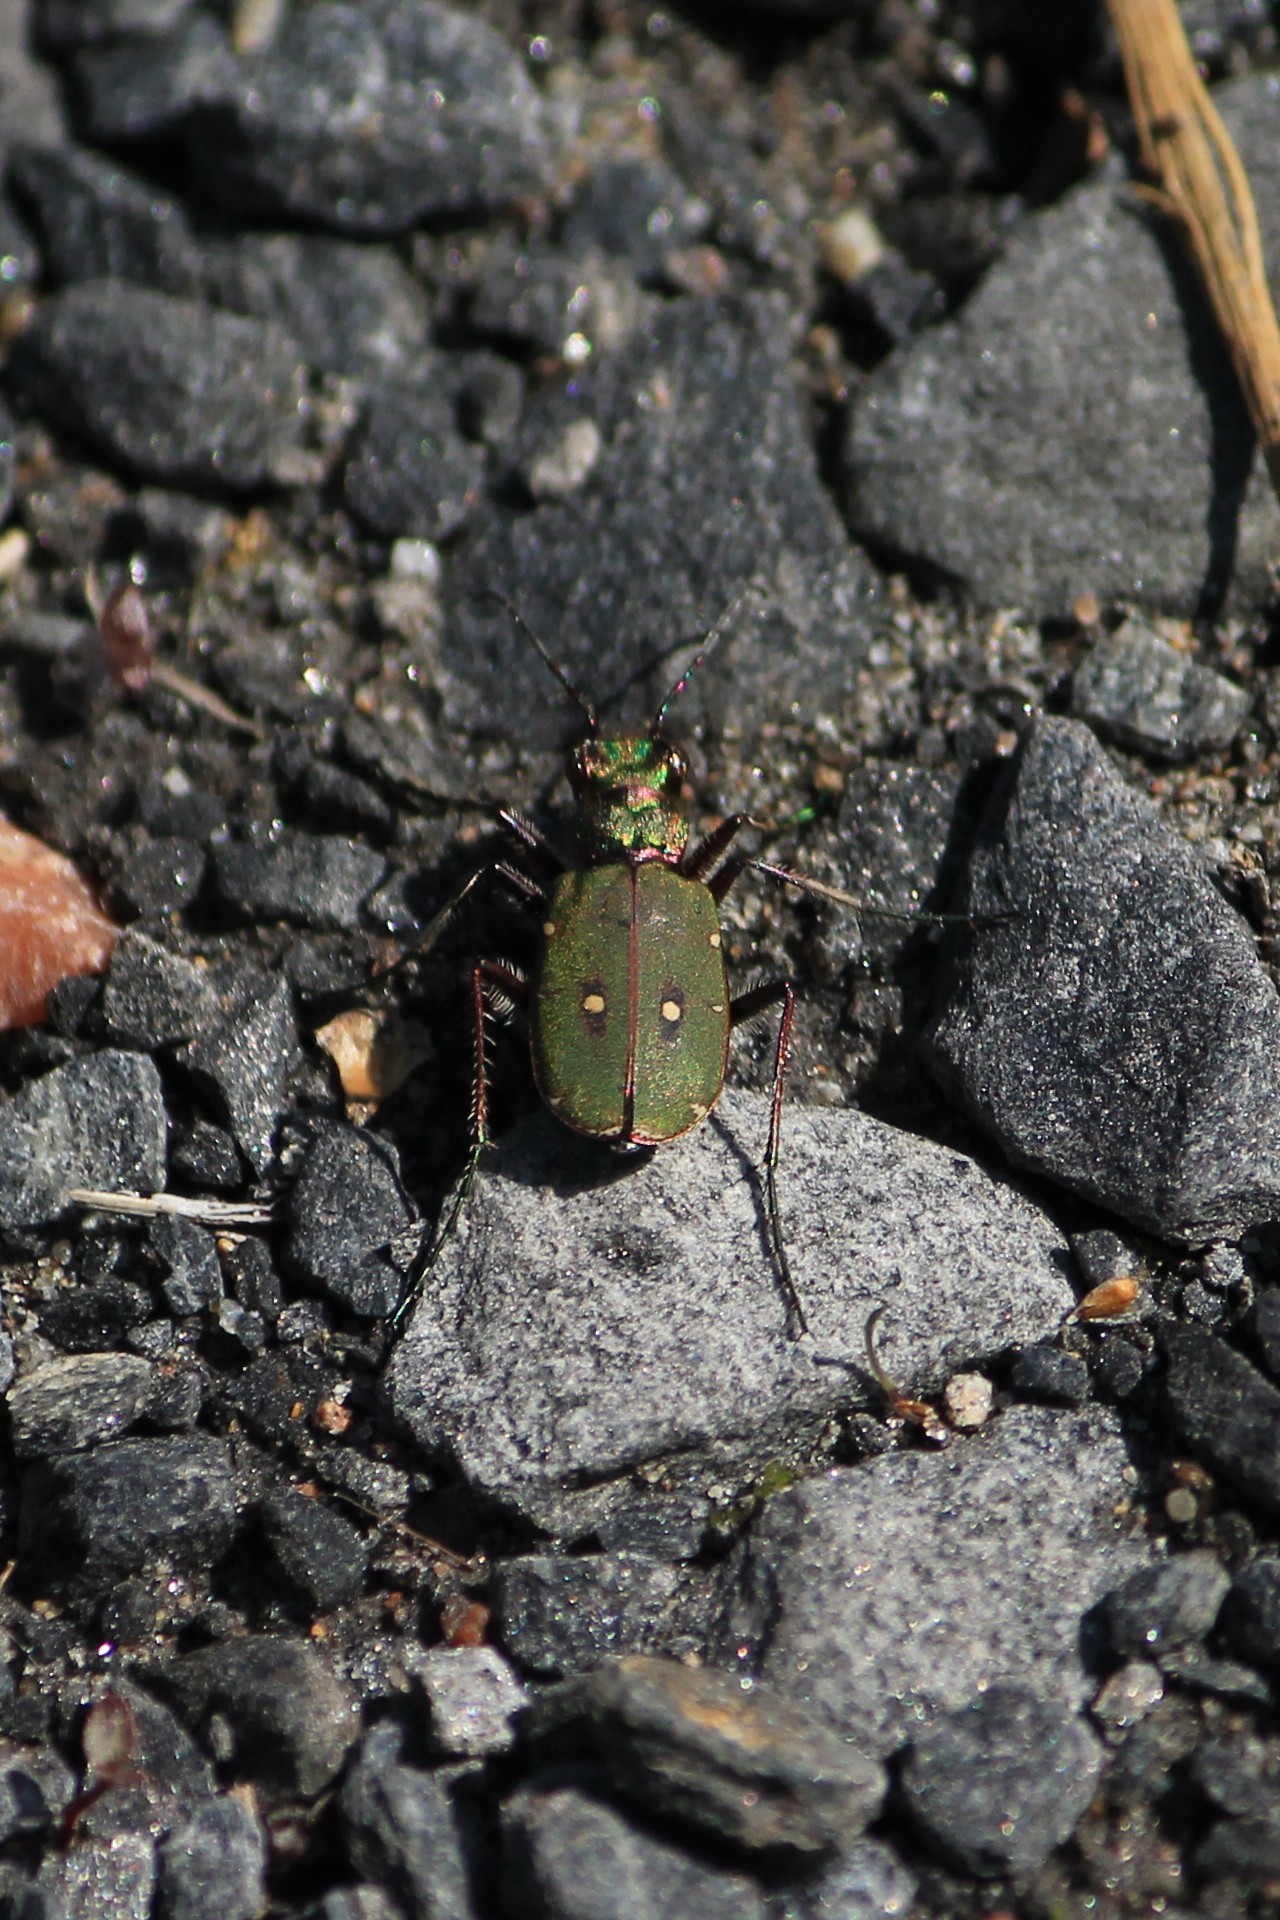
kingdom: Animalia
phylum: Arthropoda
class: Insecta
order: Coleoptera
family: Carabidae
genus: Cicindela
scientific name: Cicindela campestris
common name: Common tiger beetle
